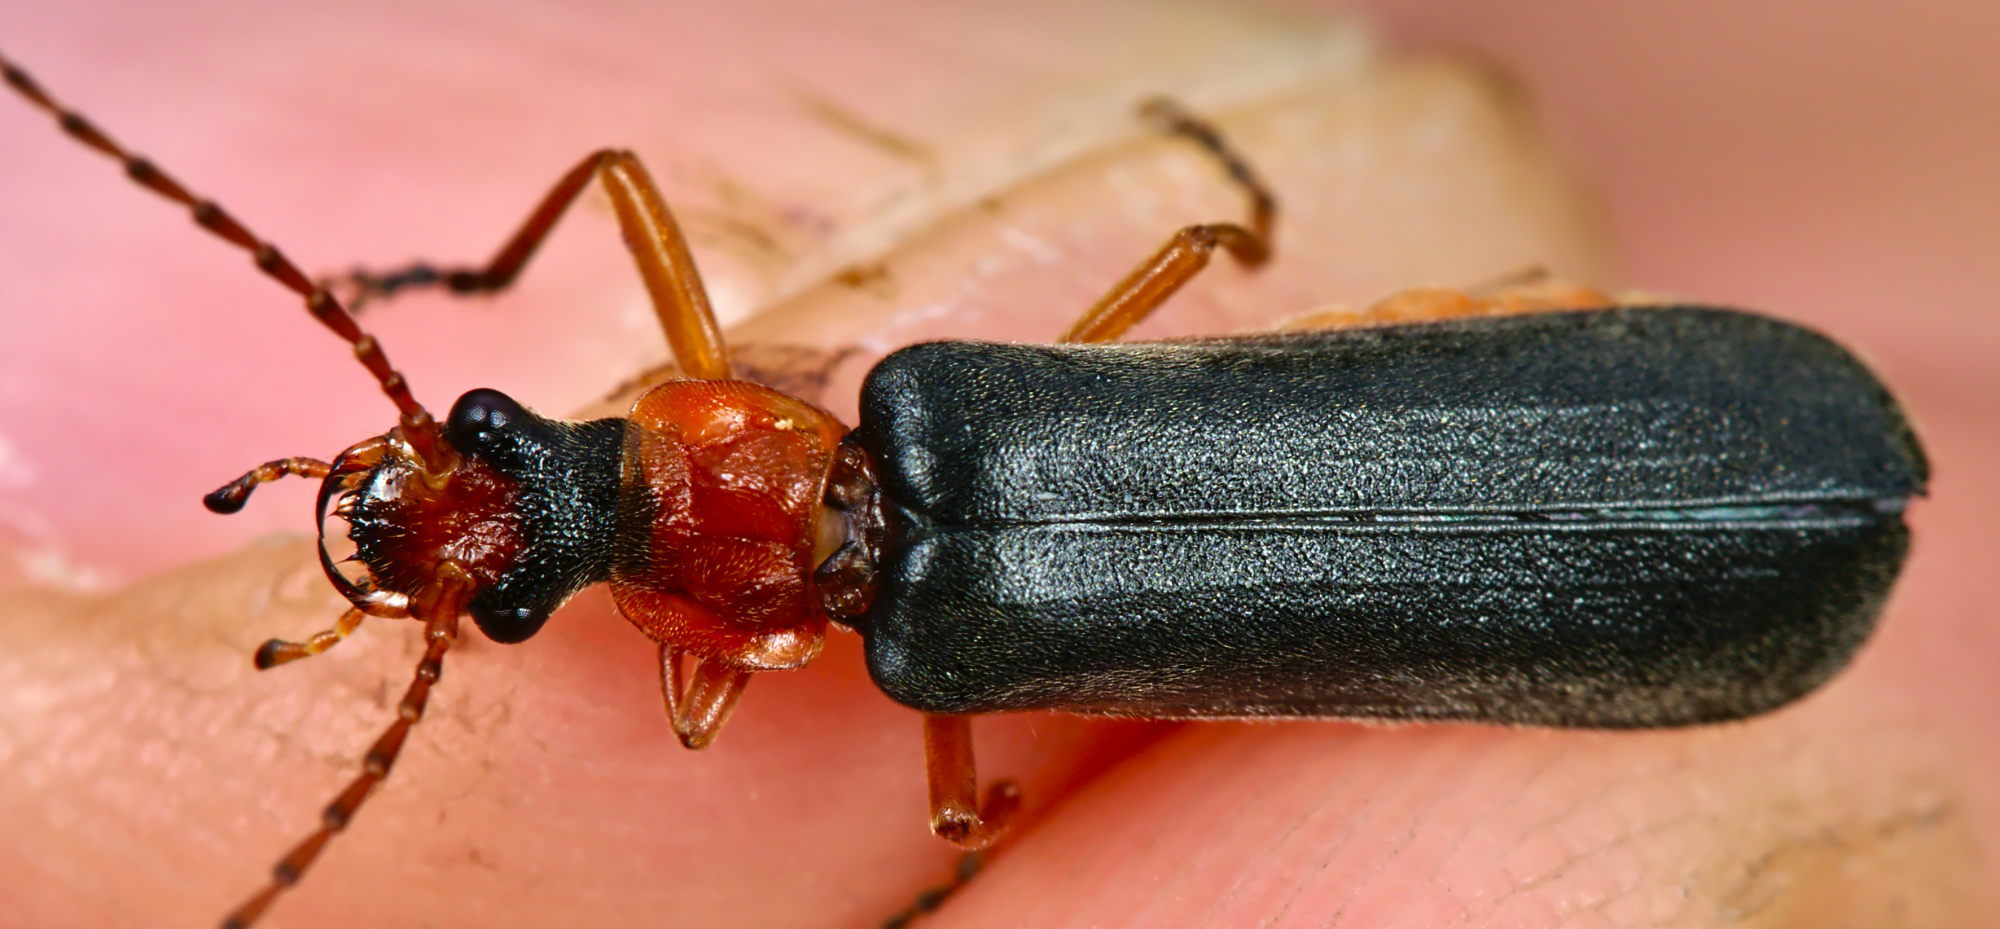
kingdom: Animalia
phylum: Arthropoda
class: Insecta
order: Coleoptera
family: Cantharidae
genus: Podabrus
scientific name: Podabrus alpinus
